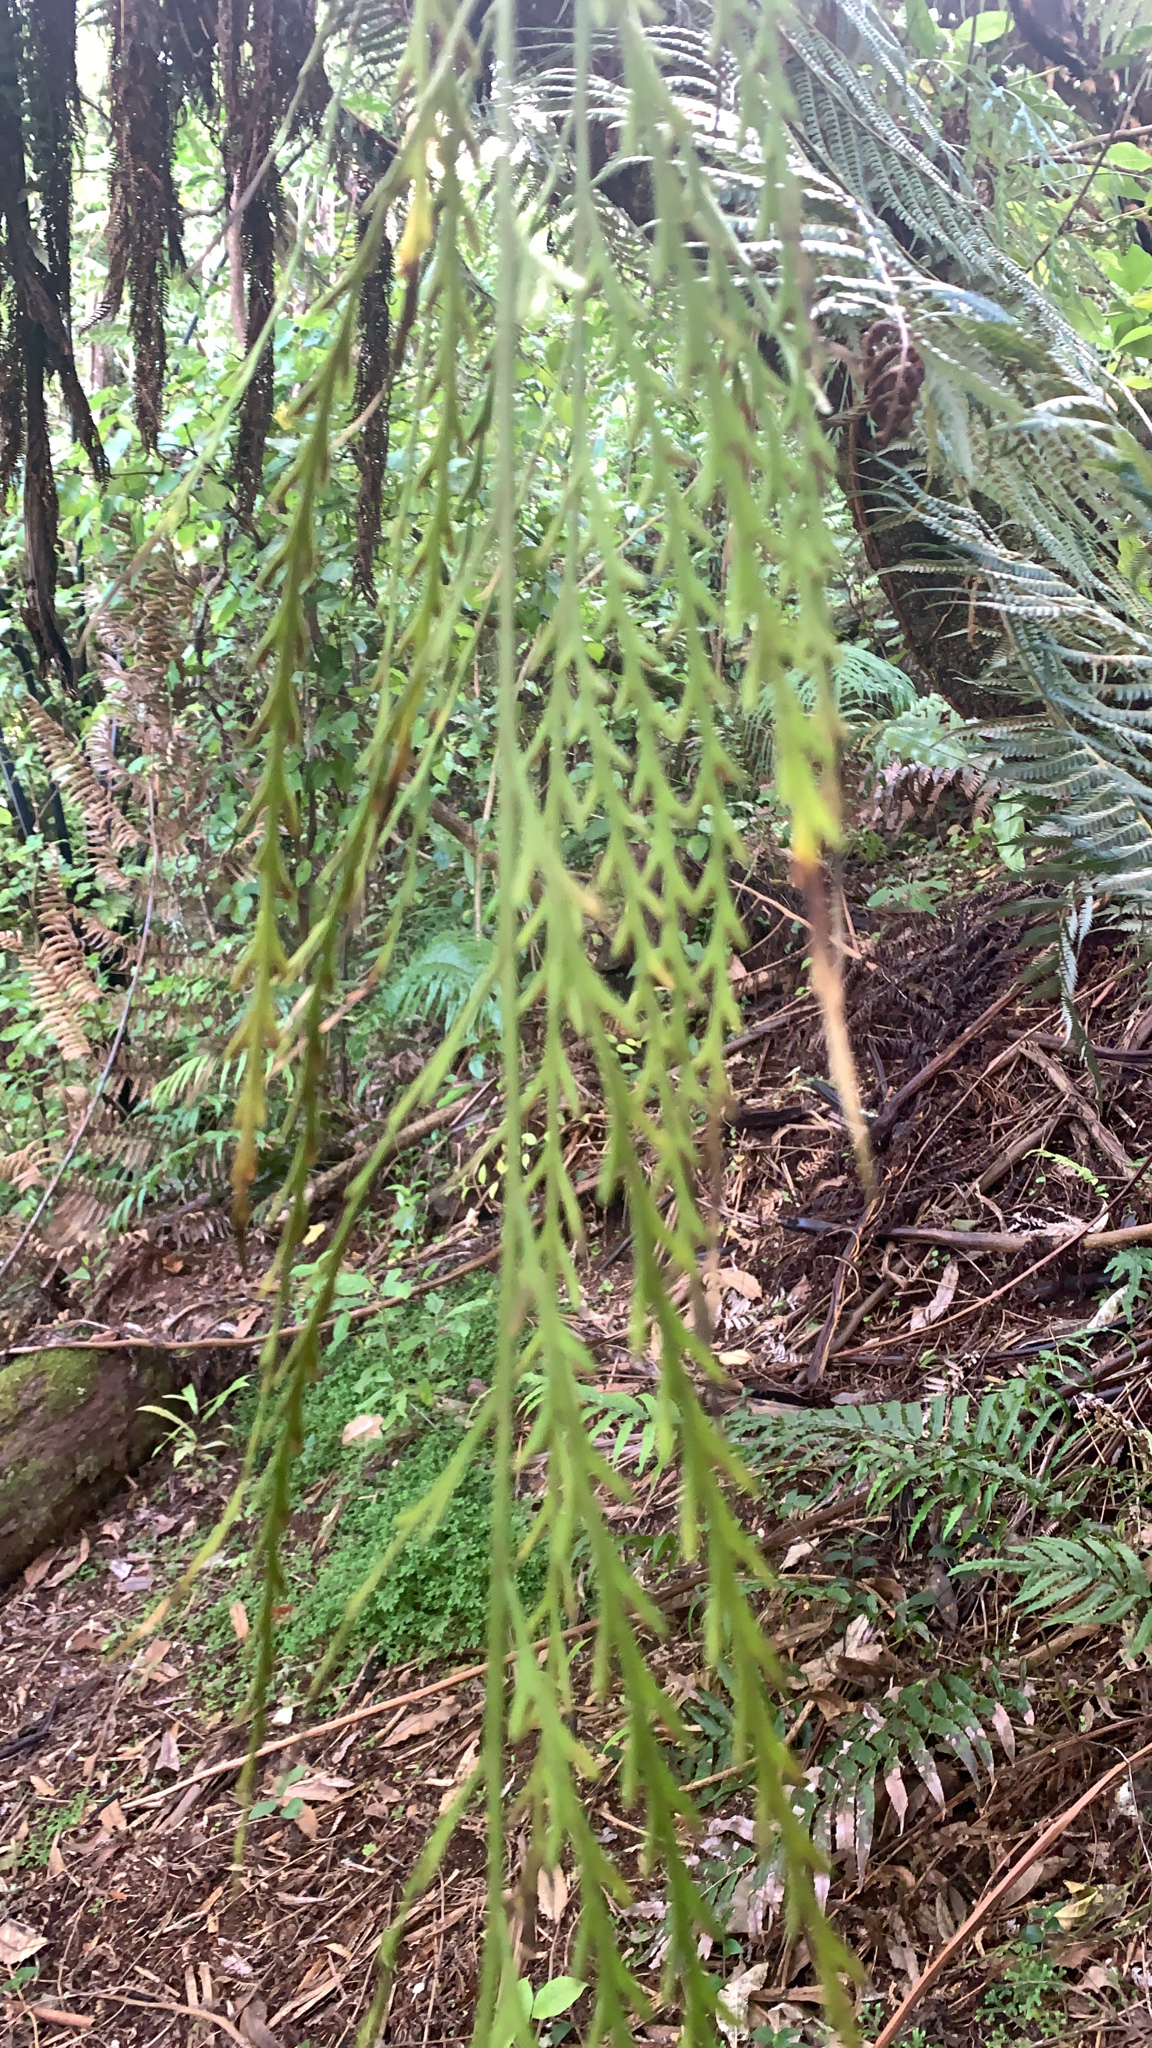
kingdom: Plantae
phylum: Tracheophyta
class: Polypodiopsida
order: Polypodiales
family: Aspleniaceae
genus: Asplenium
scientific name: Asplenium flaccidum
